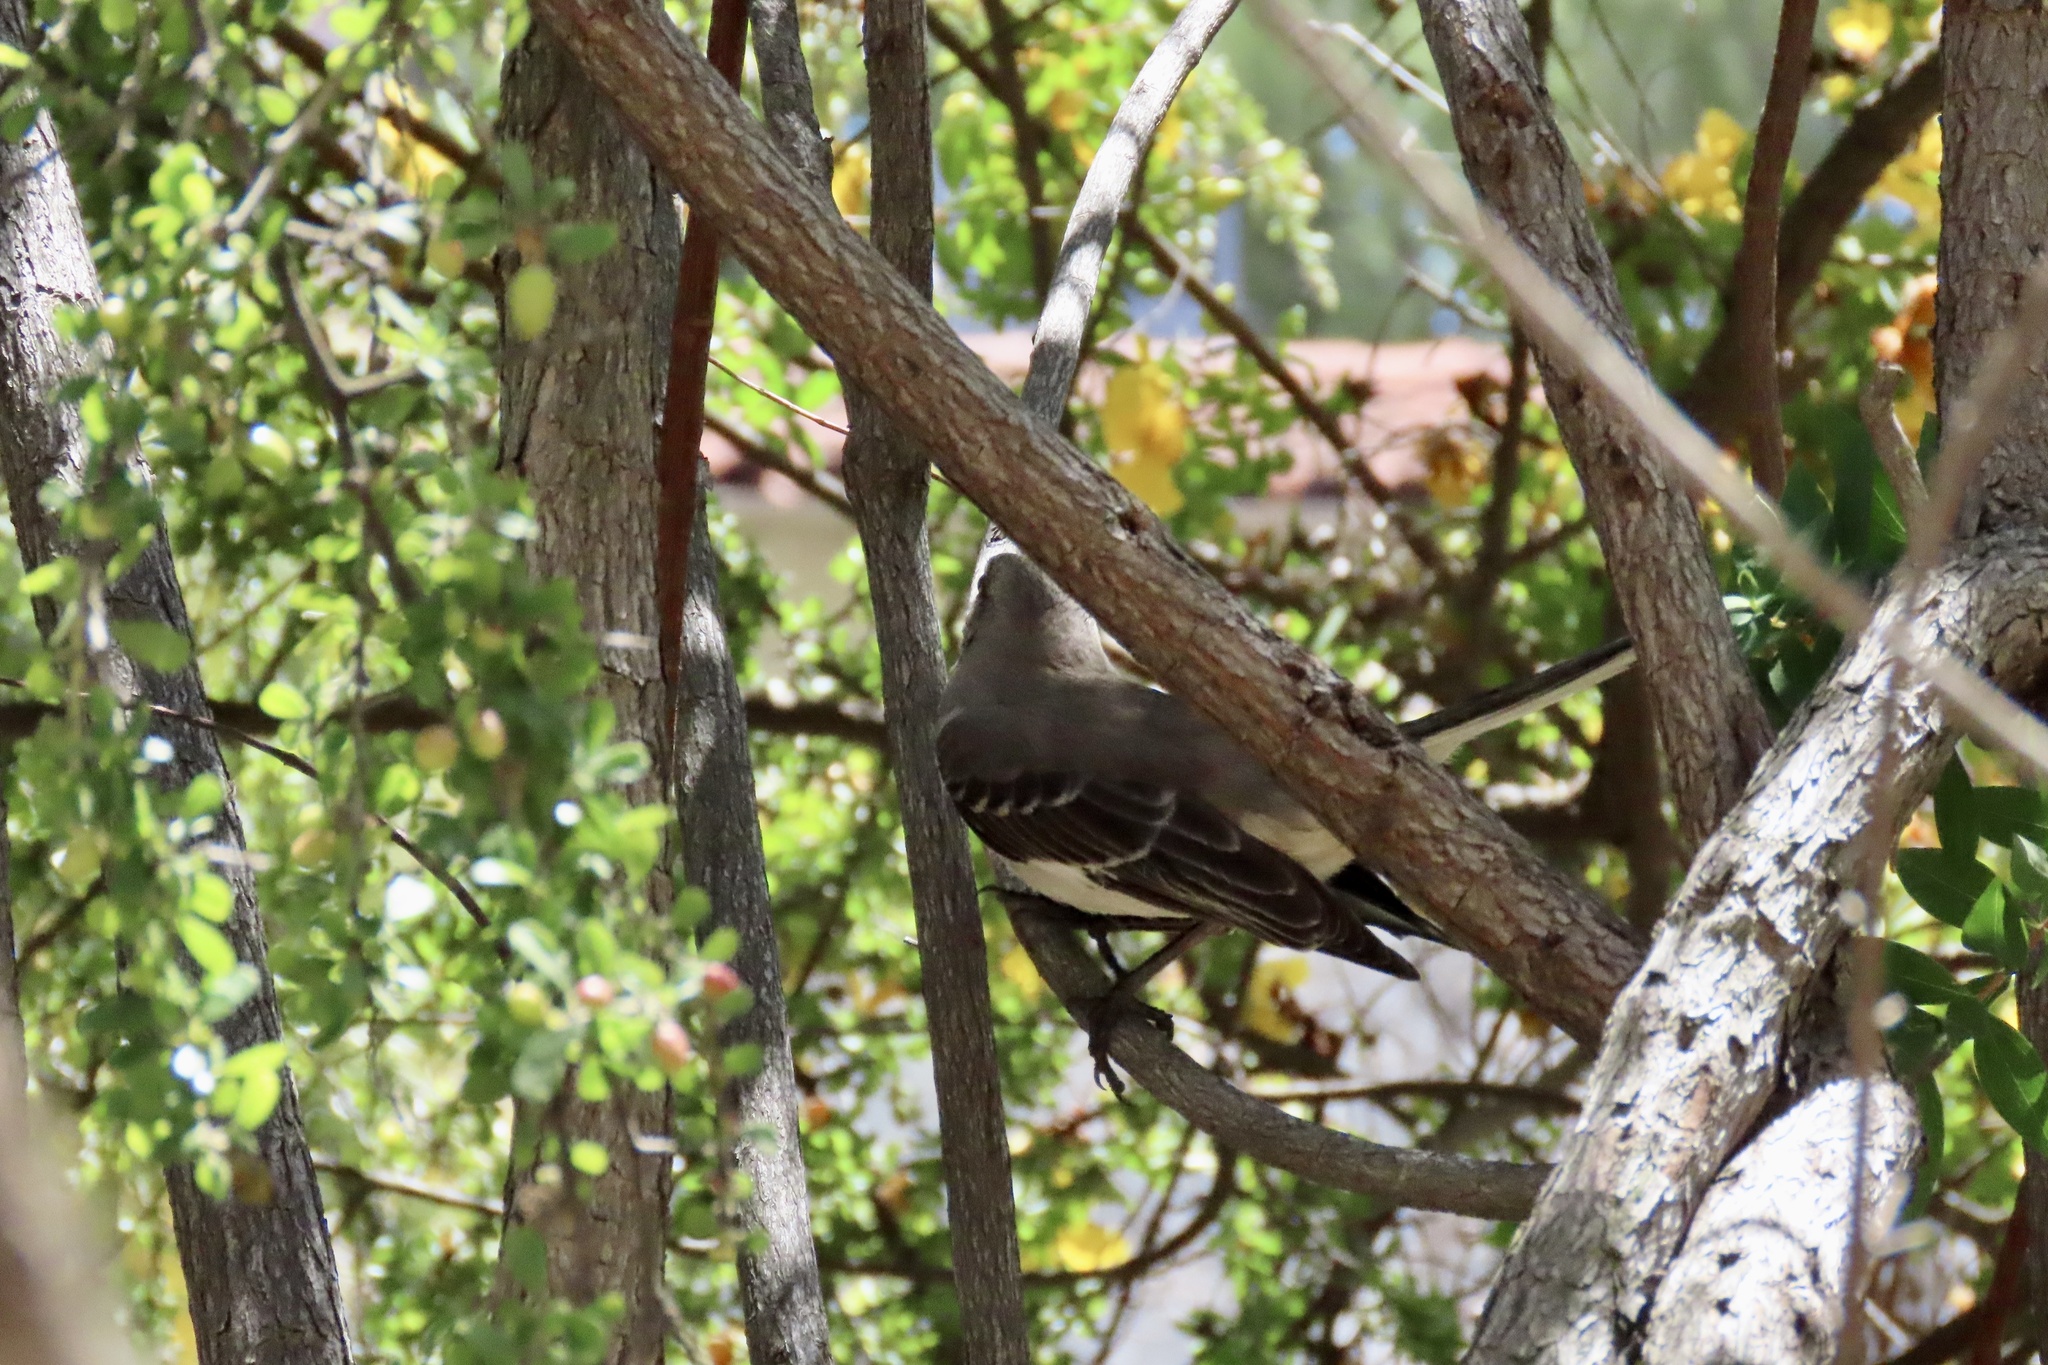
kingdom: Animalia
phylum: Chordata
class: Aves
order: Passeriformes
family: Mimidae
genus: Mimus
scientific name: Mimus polyglottos
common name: Northern mockingbird
